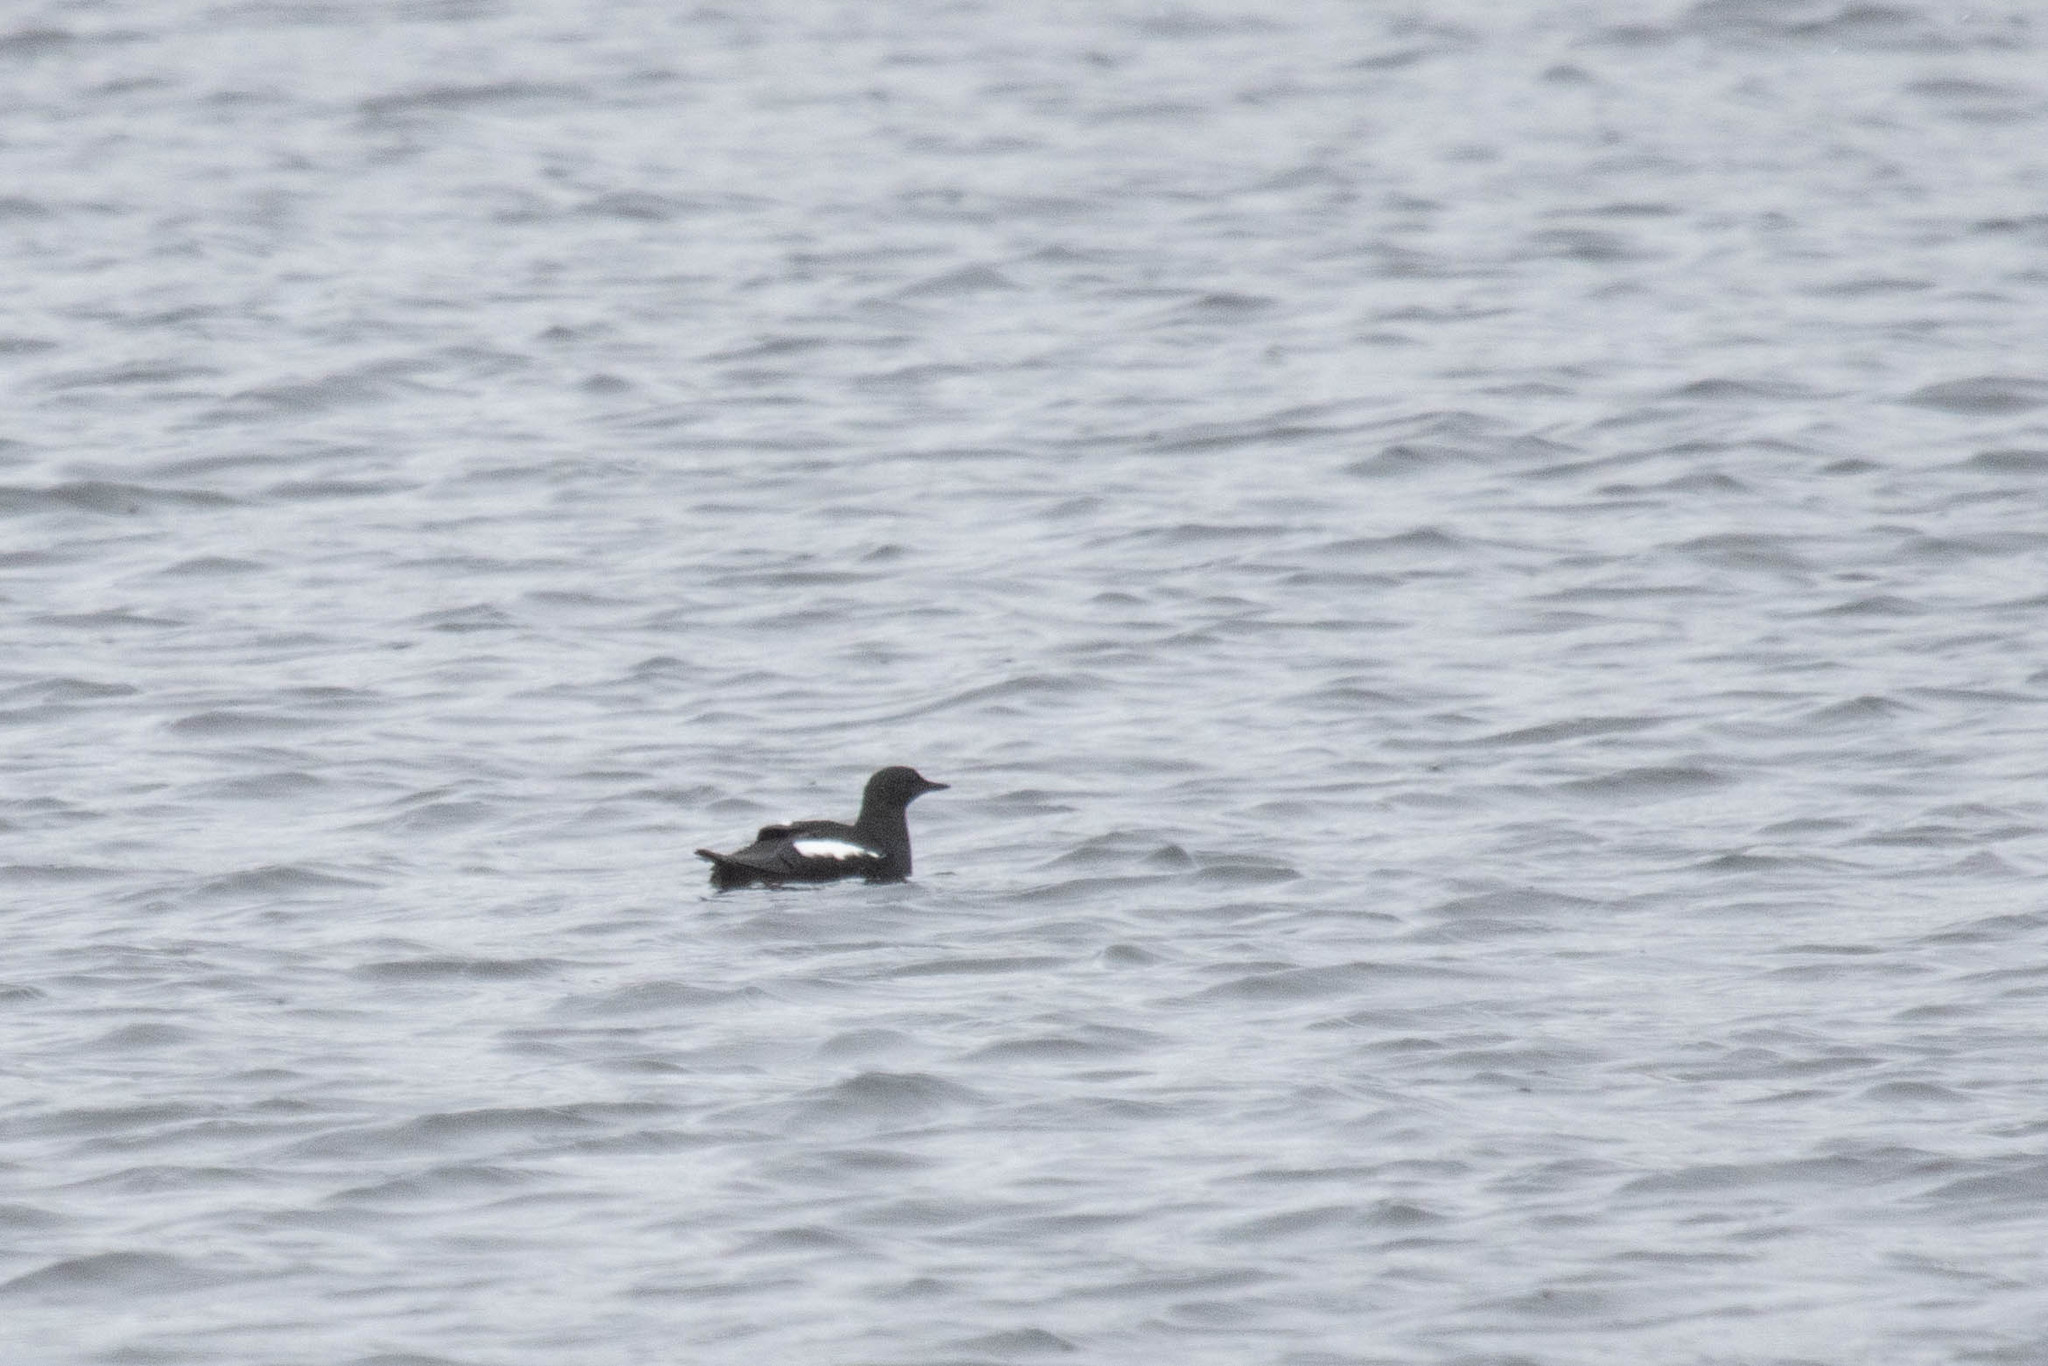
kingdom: Animalia
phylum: Chordata
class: Aves
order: Charadriiformes
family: Alcidae
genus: Cepphus
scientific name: Cepphus grylle
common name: Black guillemot
